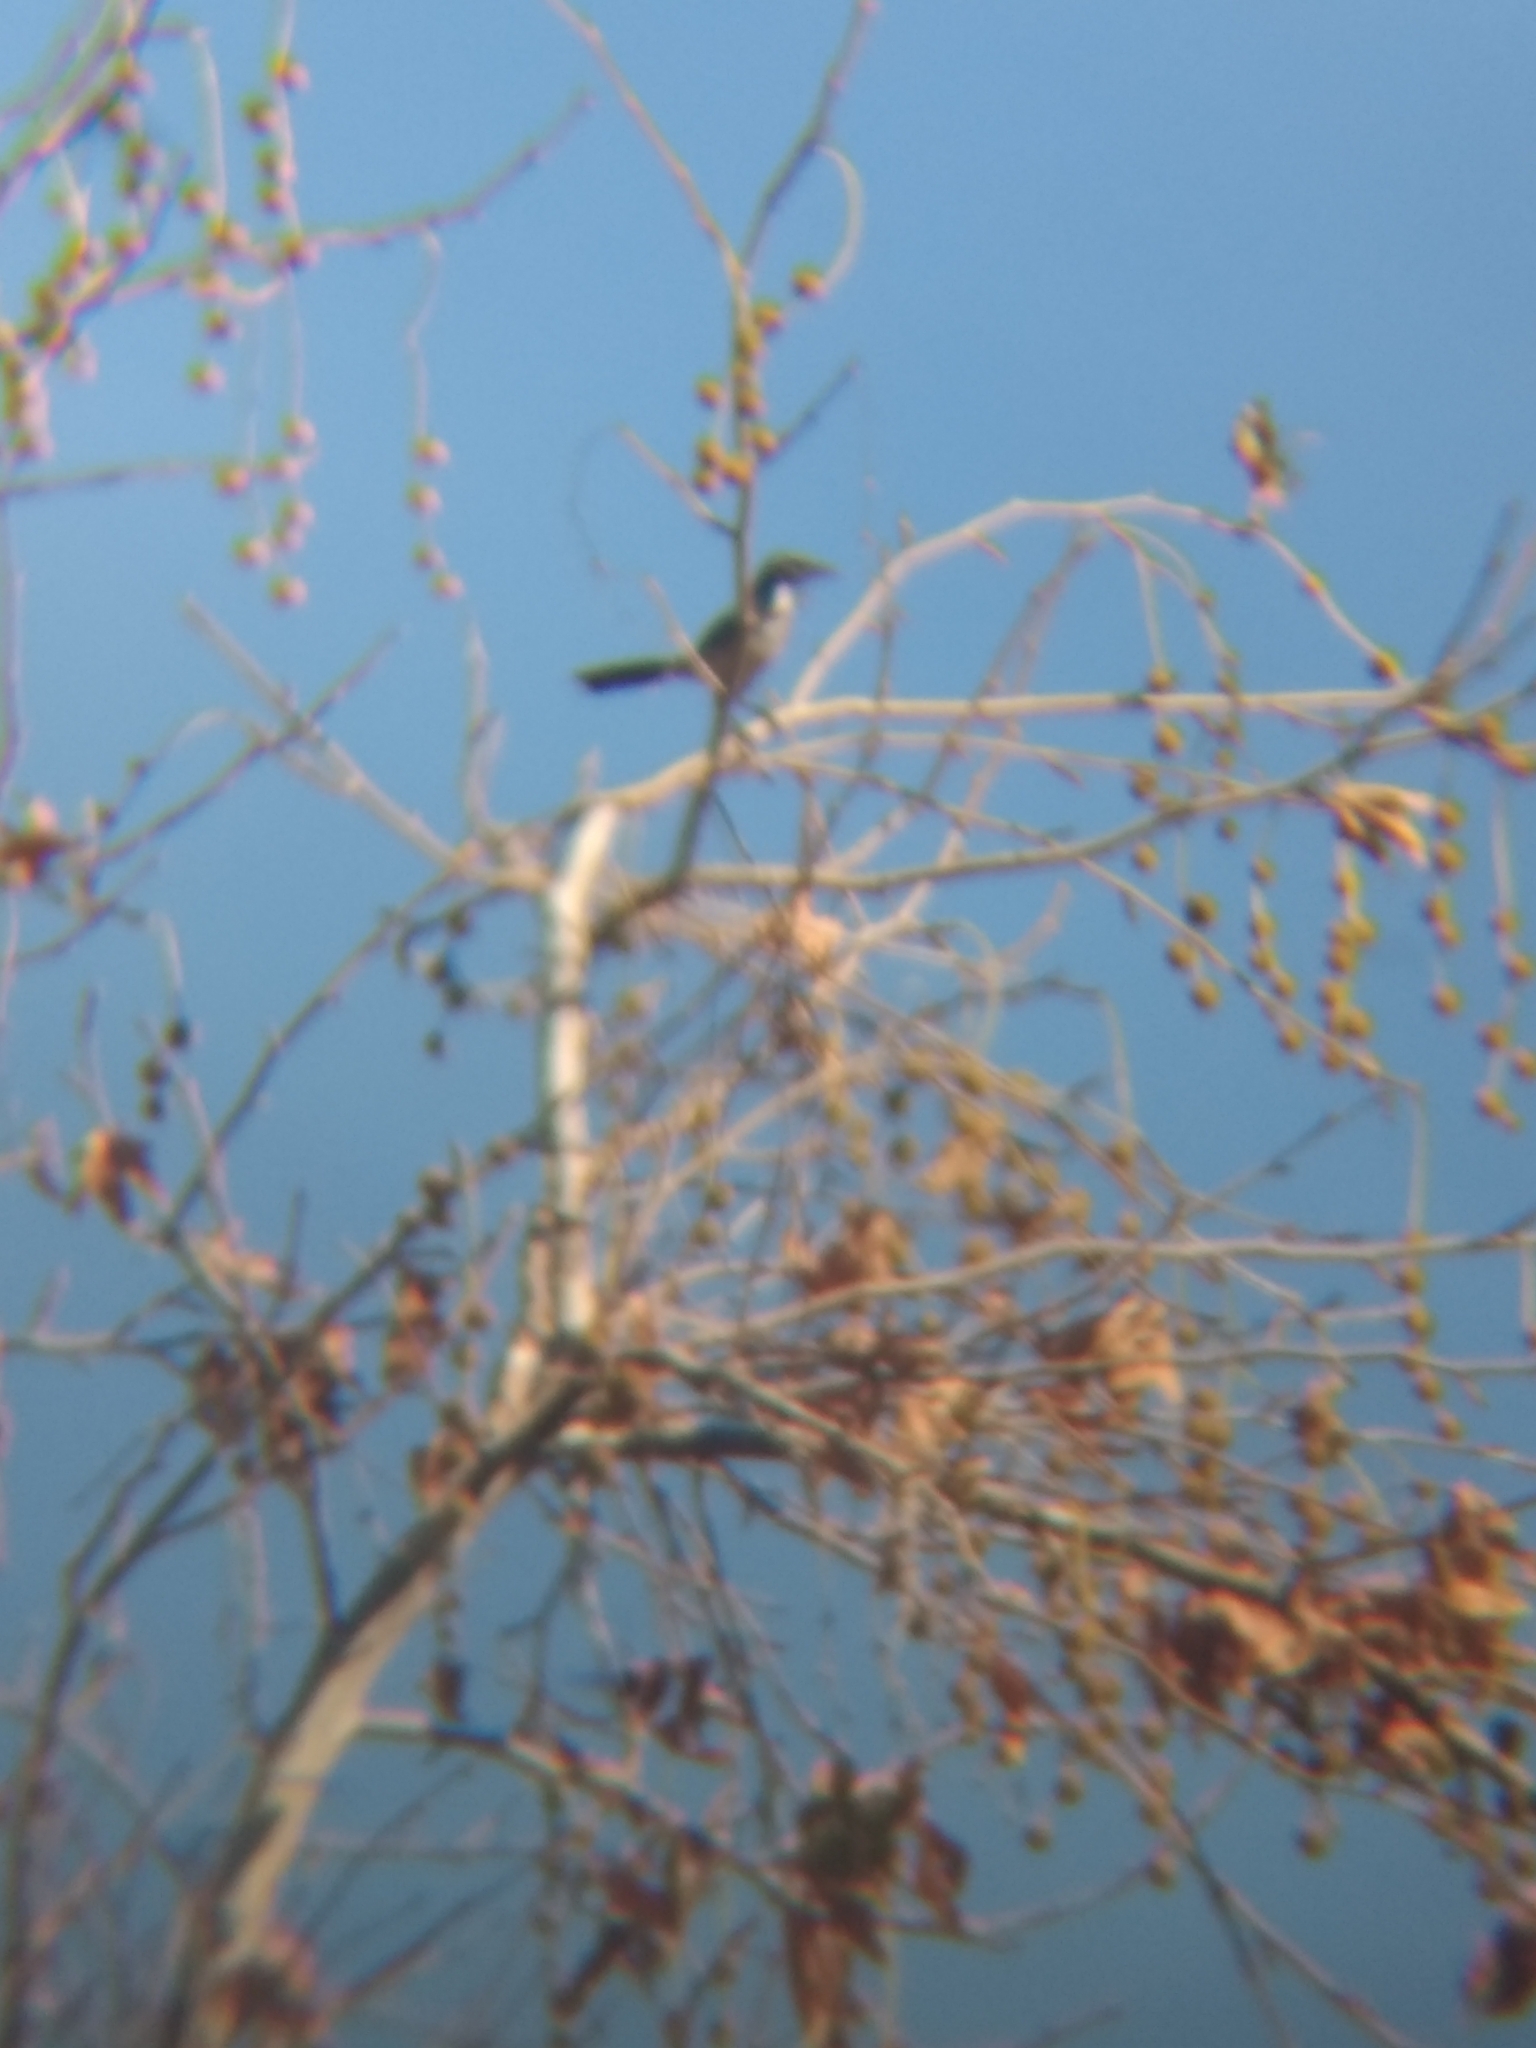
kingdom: Animalia
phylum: Chordata
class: Aves
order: Passeriformes
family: Corvidae
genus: Aphelocoma
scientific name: Aphelocoma californica
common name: California scrub-jay
